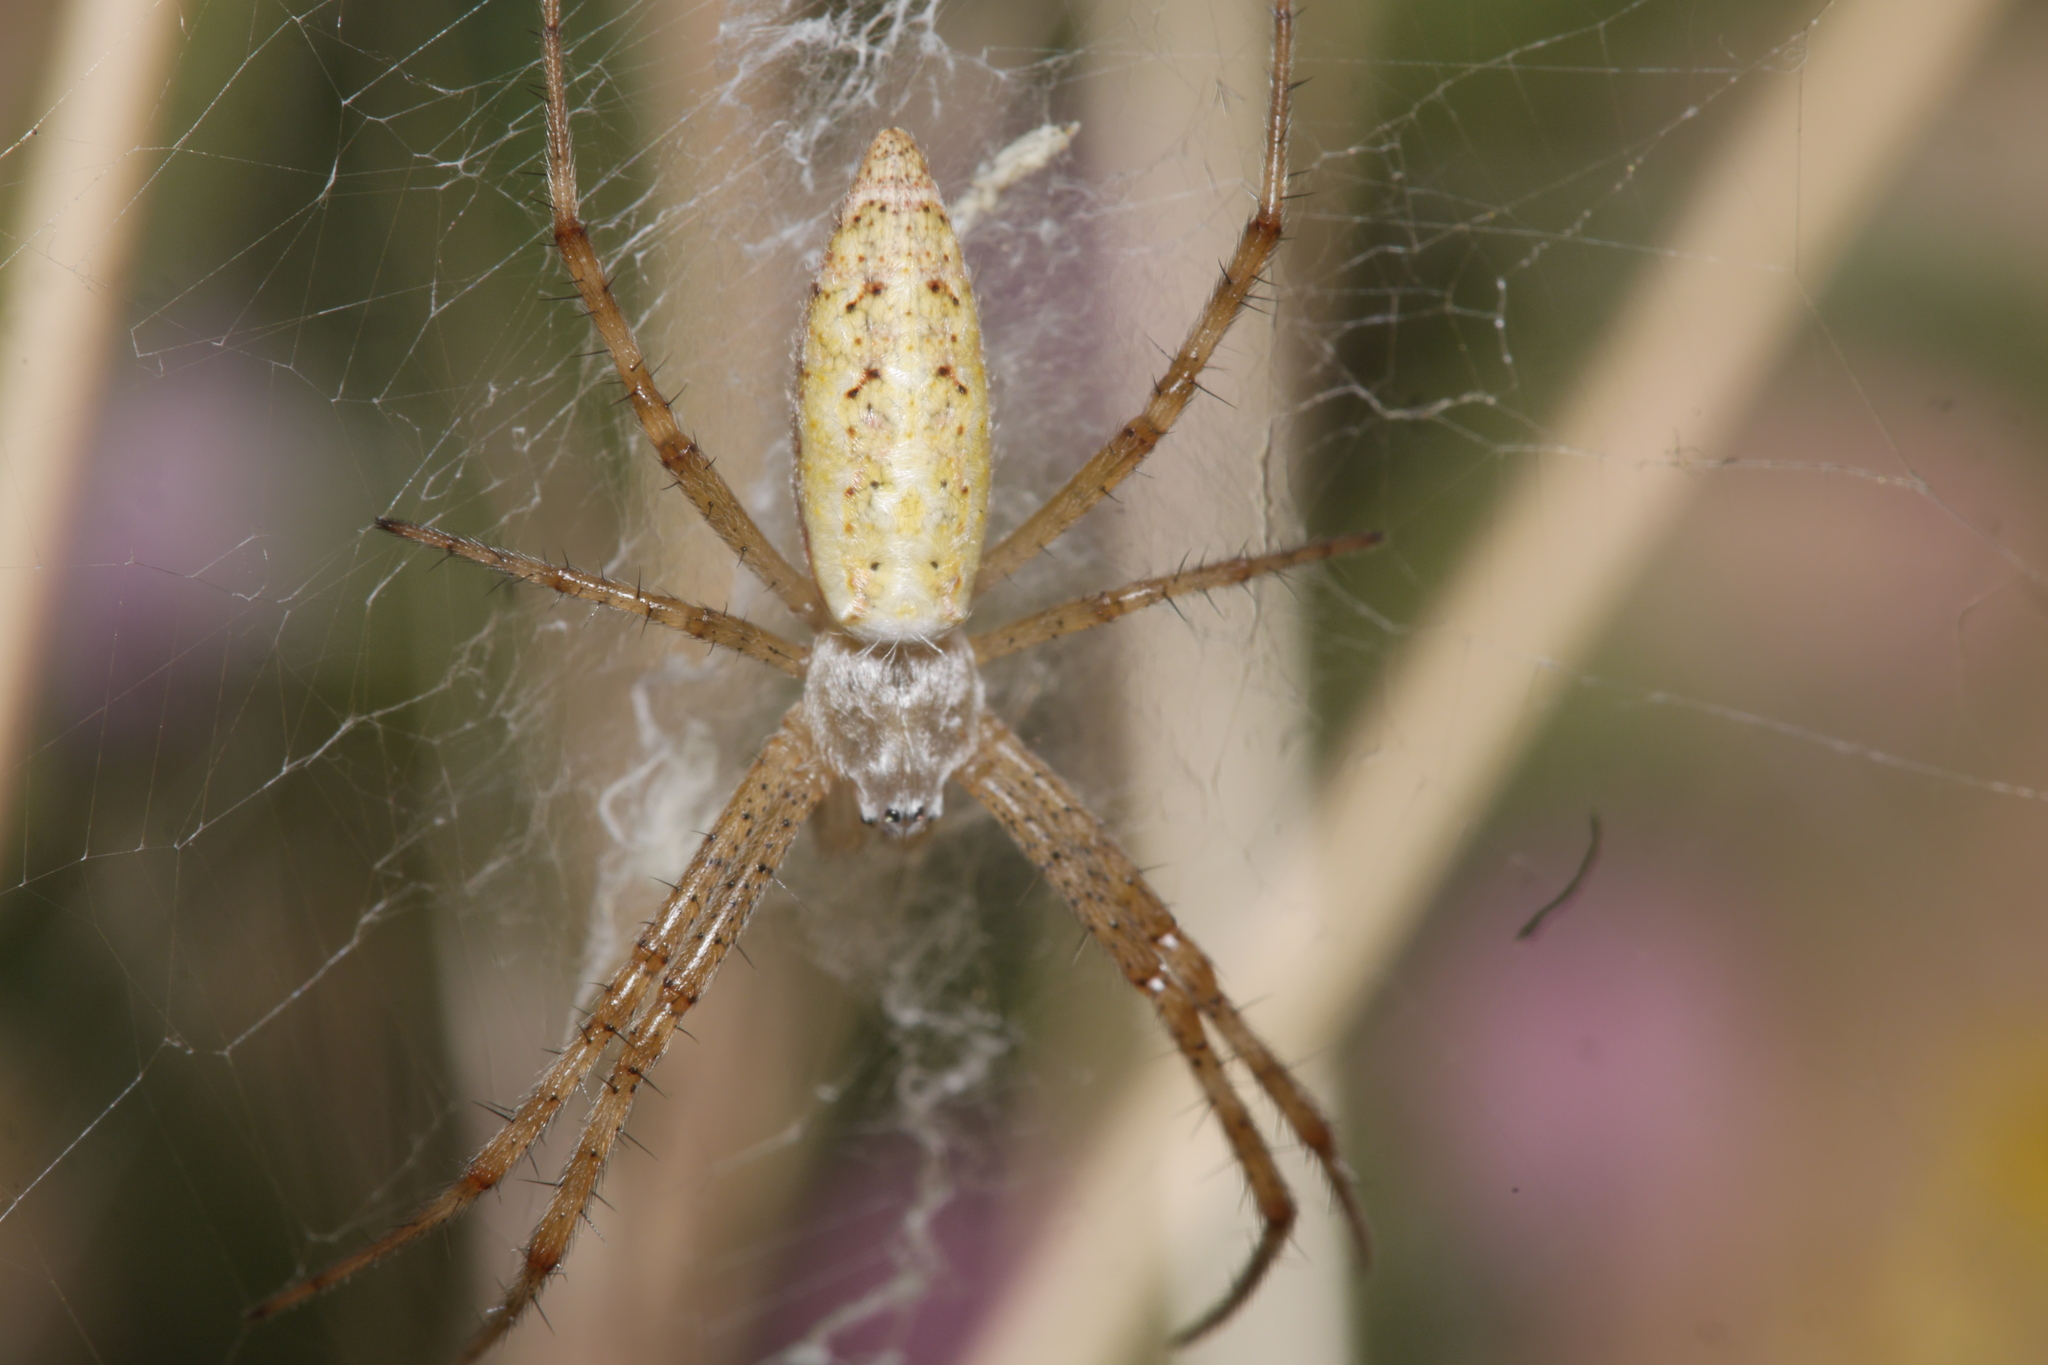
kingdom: Animalia
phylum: Arthropoda
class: Arachnida
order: Araneae
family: Araneidae
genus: Argiope
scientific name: Argiope bruennichi
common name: Wasp spider
